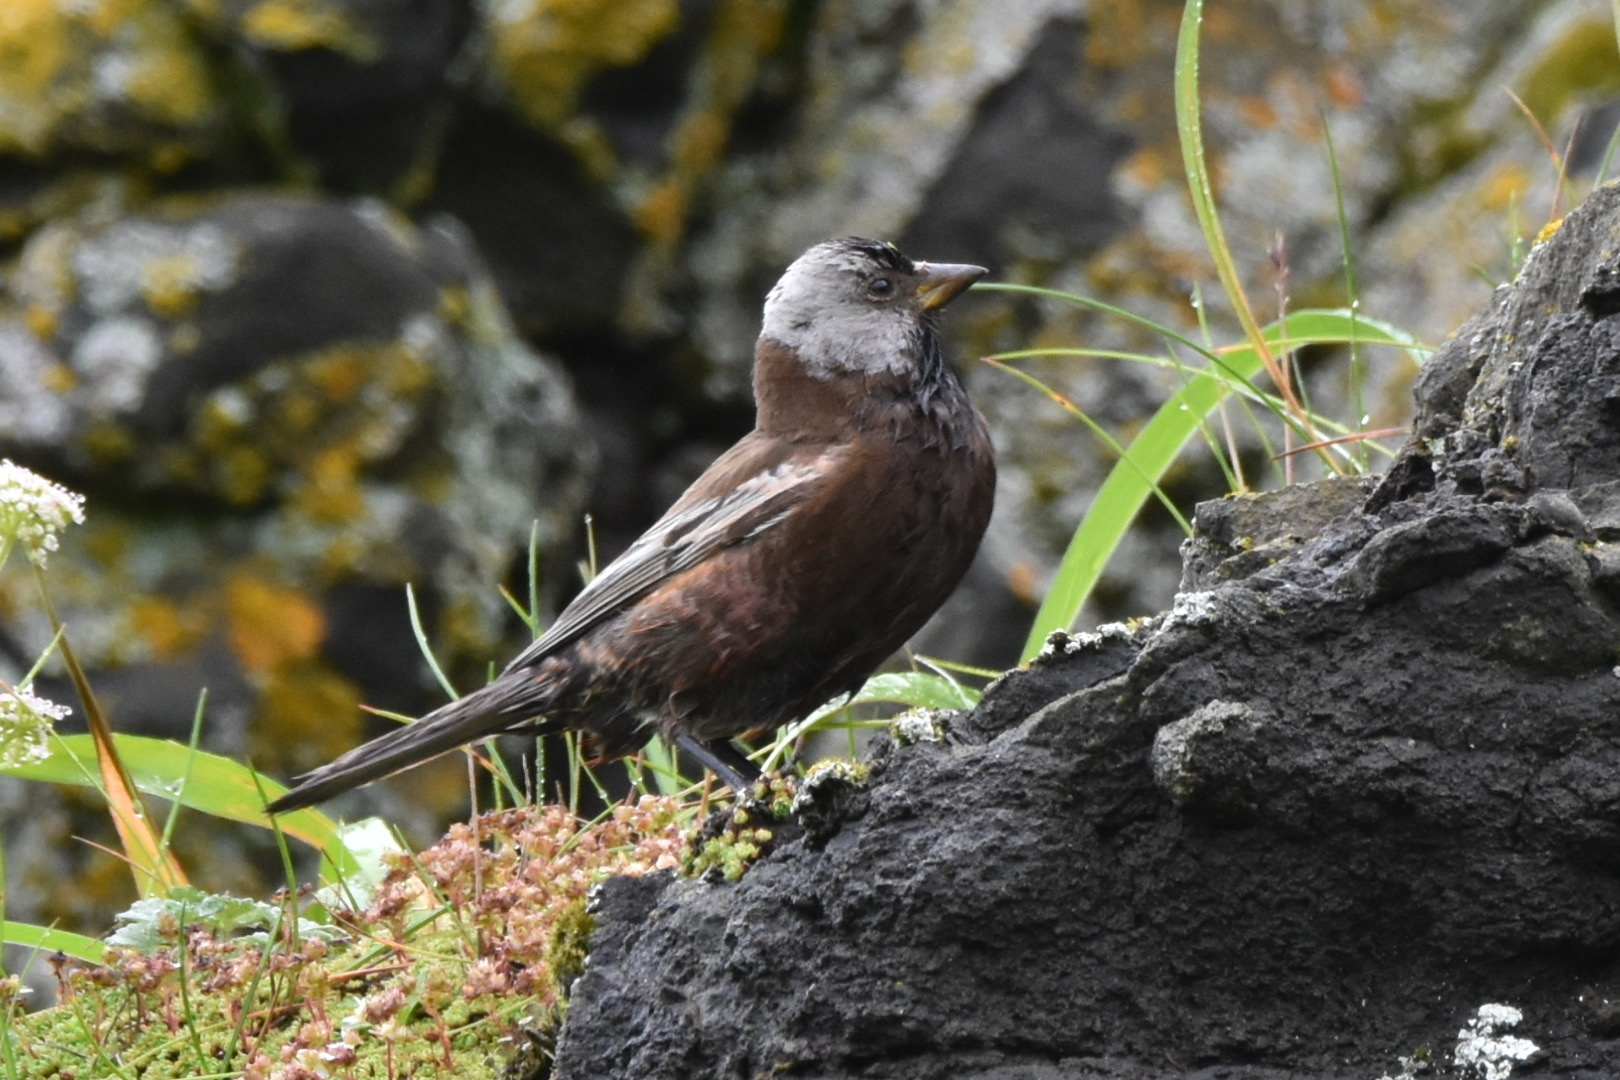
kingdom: Animalia
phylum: Chordata
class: Aves
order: Passeriformes
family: Fringillidae
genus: Leucosticte
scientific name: Leucosticte tephrocotis
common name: Gray-crowned rosy-finch
